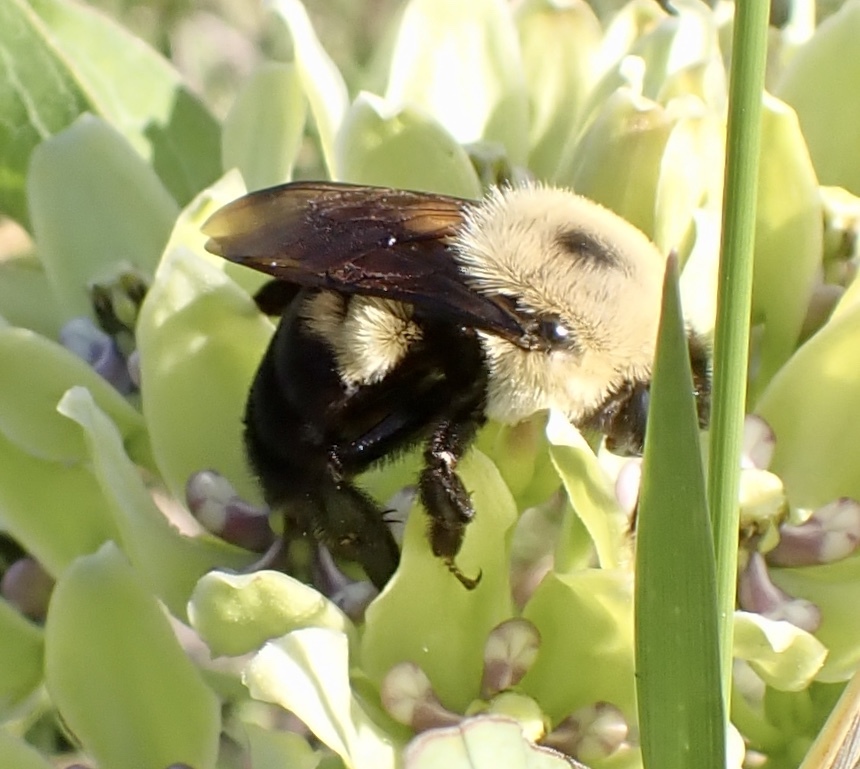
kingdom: Animalia
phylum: Arthropoda
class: Insecta
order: Hymenoptera
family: Apidae
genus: Bombus
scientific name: Bombus griseocollis
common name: Brown-belted bumble bee
